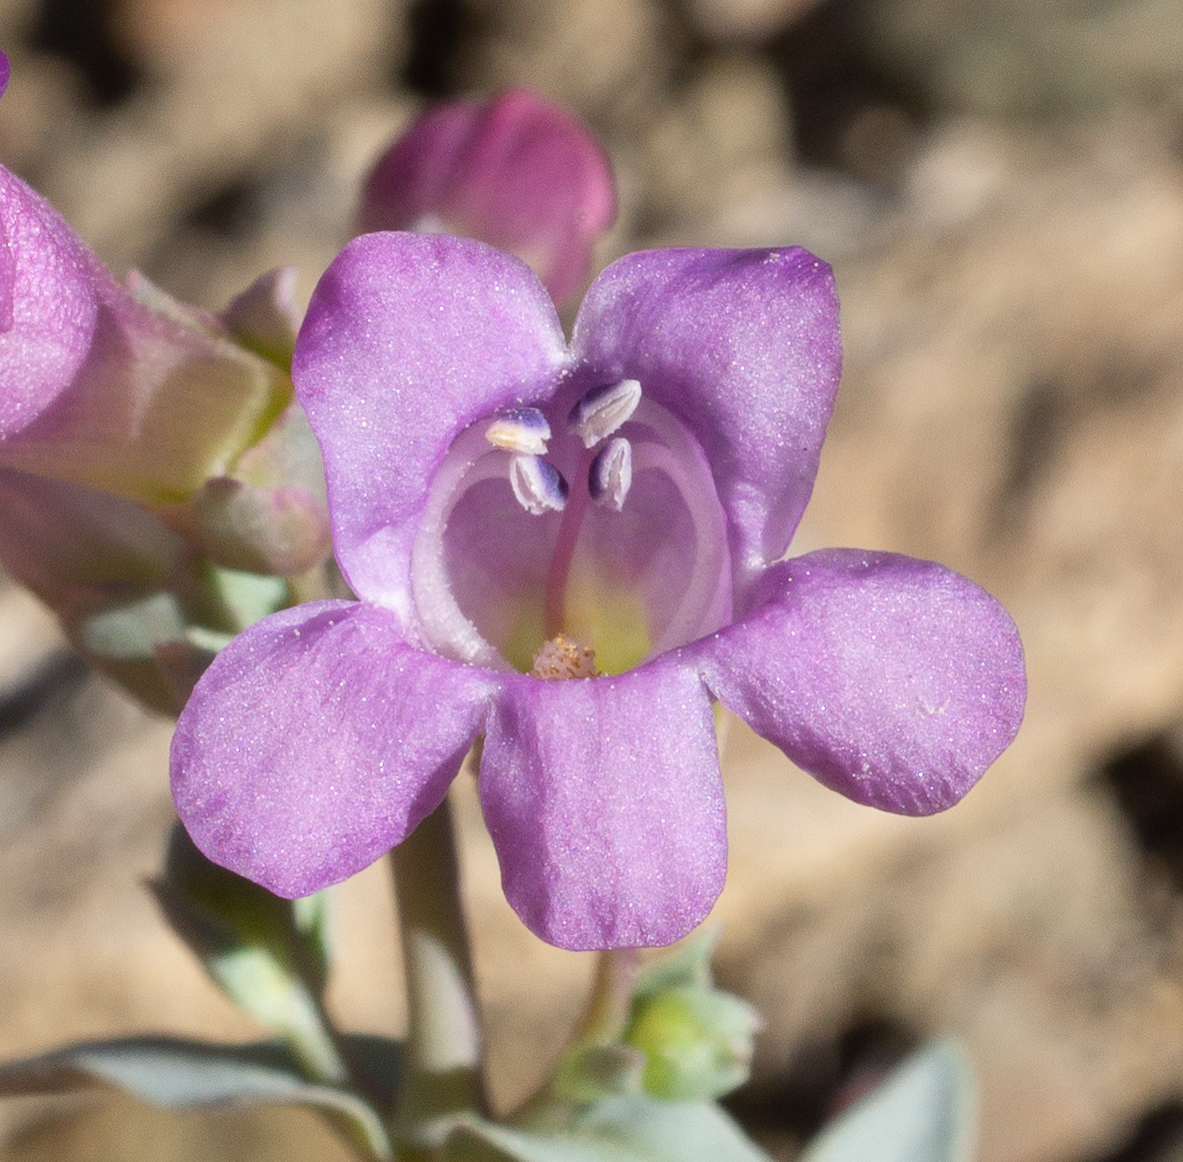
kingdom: Plantae
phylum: Tracheophyta
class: Magnoliopsida
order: Lamiales
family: Plantaginaceae
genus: Penstemon
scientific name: Penstemon patens
